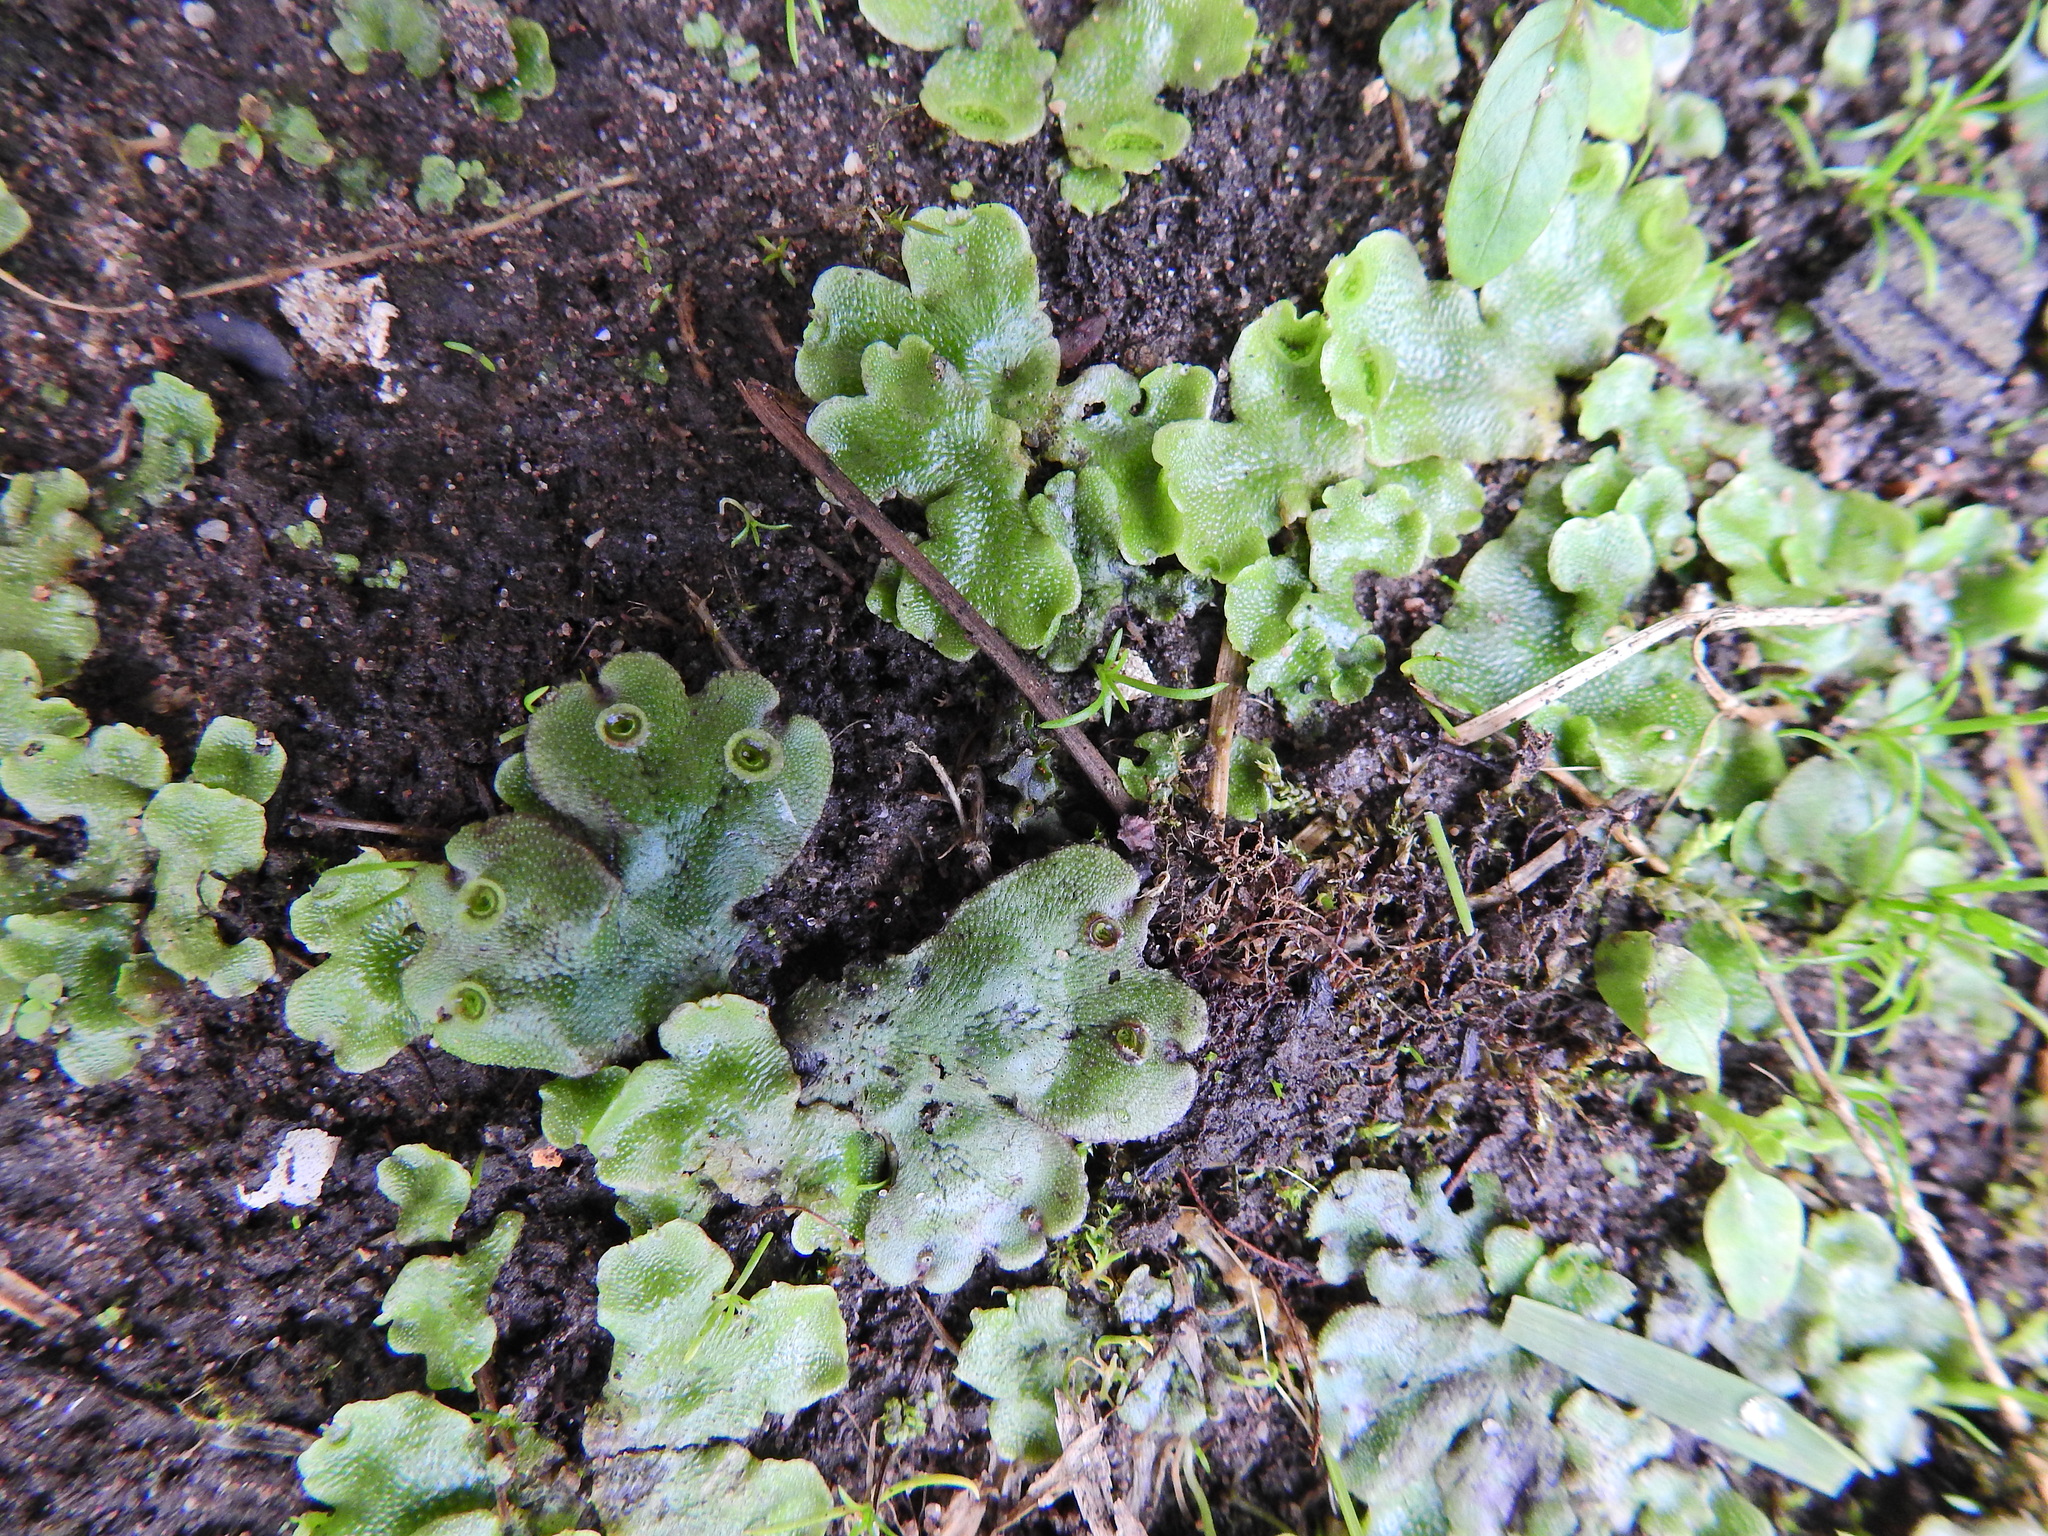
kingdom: Plantae
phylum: Marchantiophyta
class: Marchantiopsida
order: Marchantiales
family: Marchantiaceae
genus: Marchantia
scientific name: Marchantia polymorpha
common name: Common liverwort
